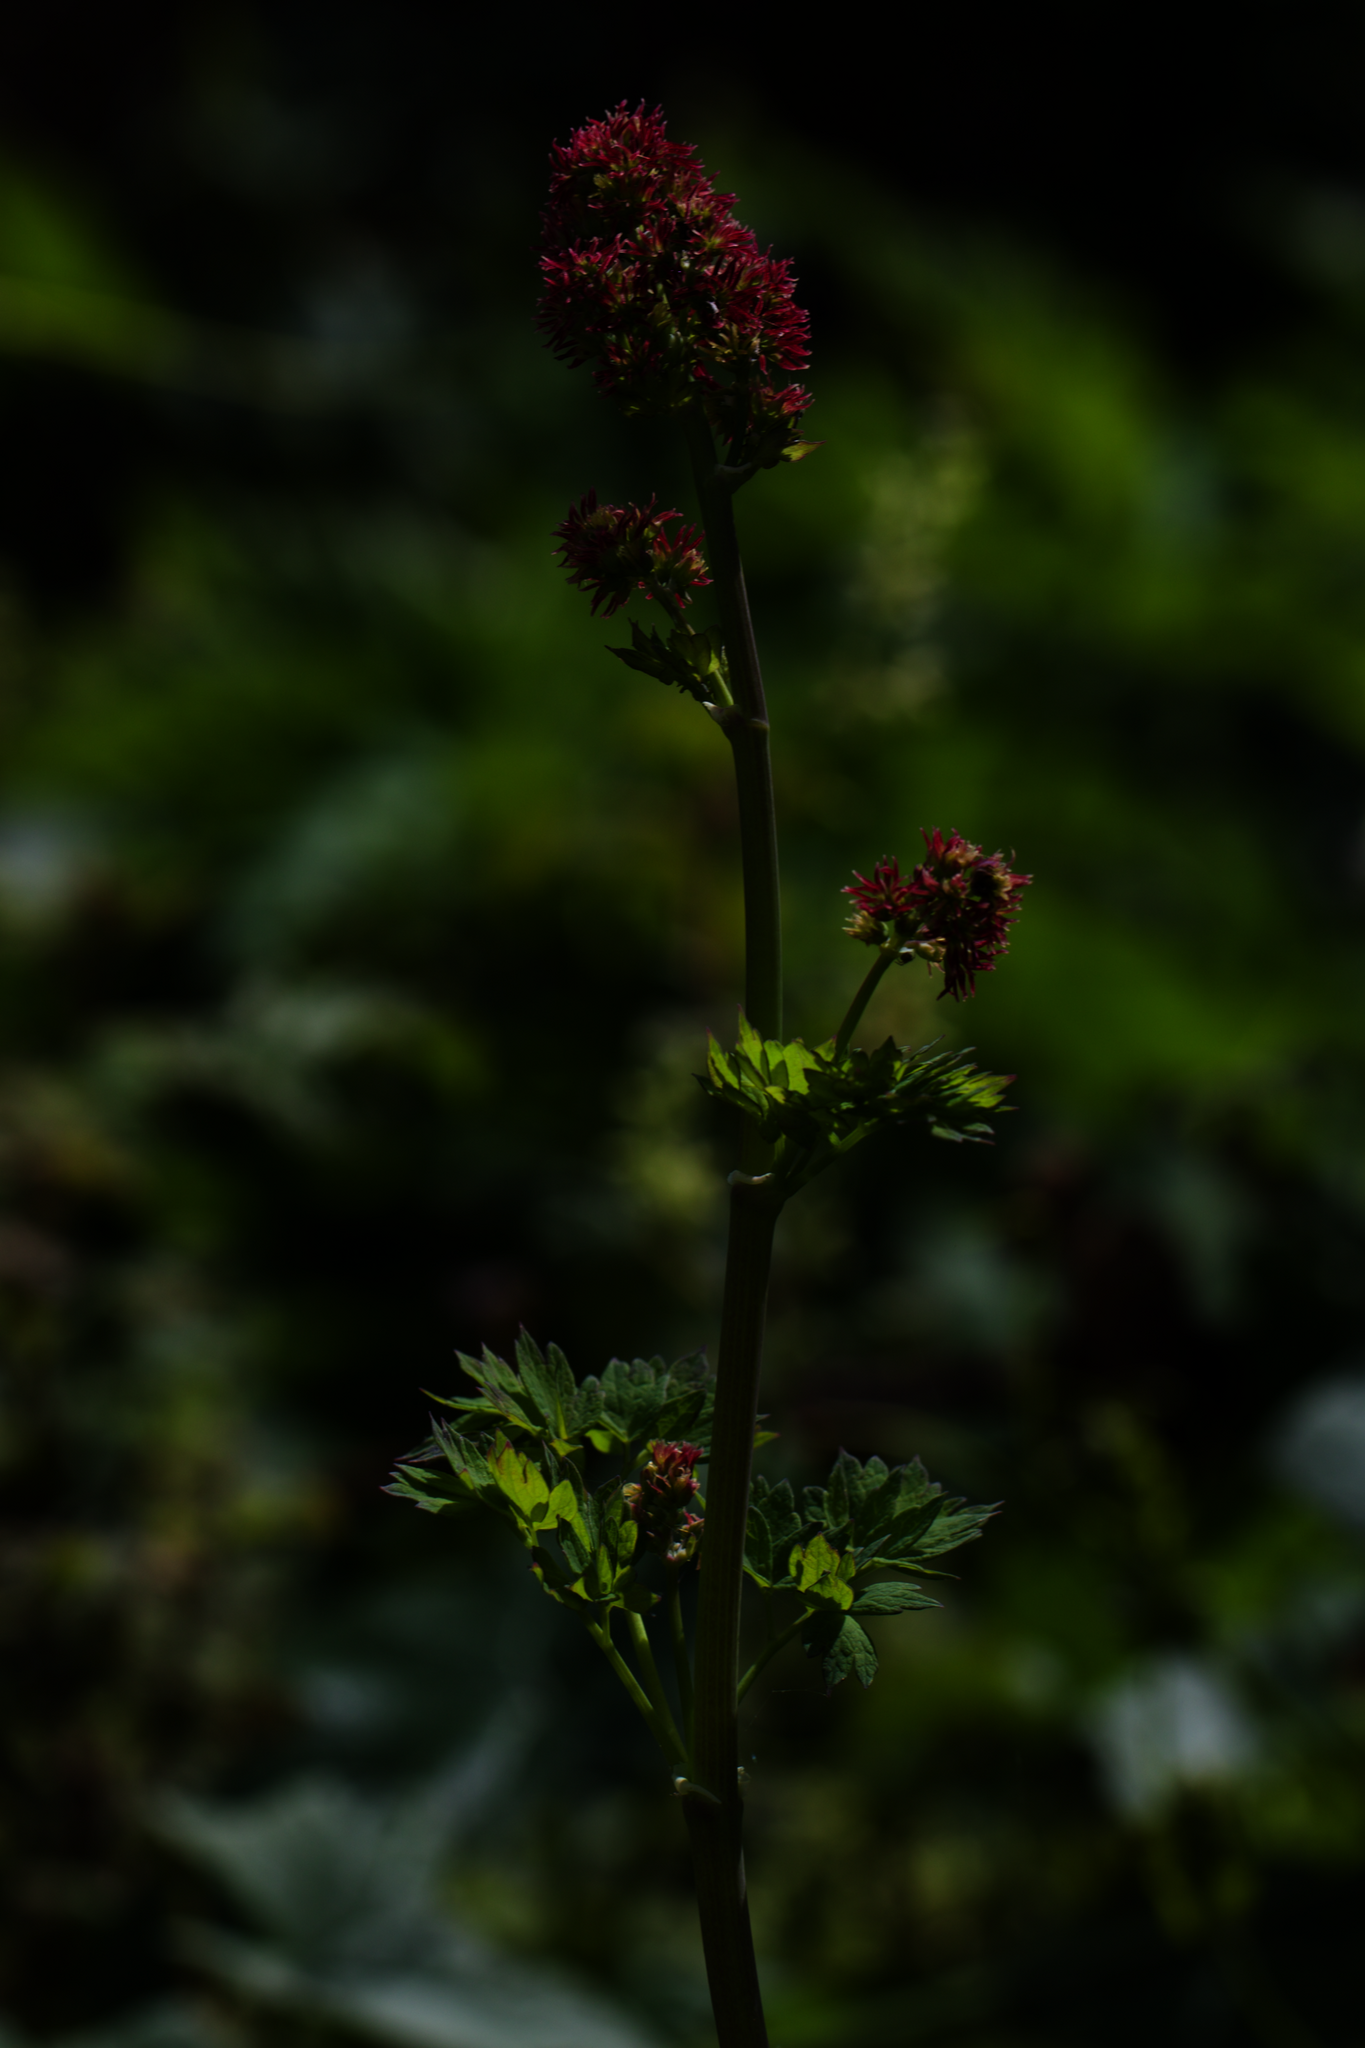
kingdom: Plantae
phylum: Tracheophyta
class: Magnoliopsida
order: Ranunculales
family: Ranunculaceae
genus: Thalictrum
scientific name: Thalictrum fendleri
